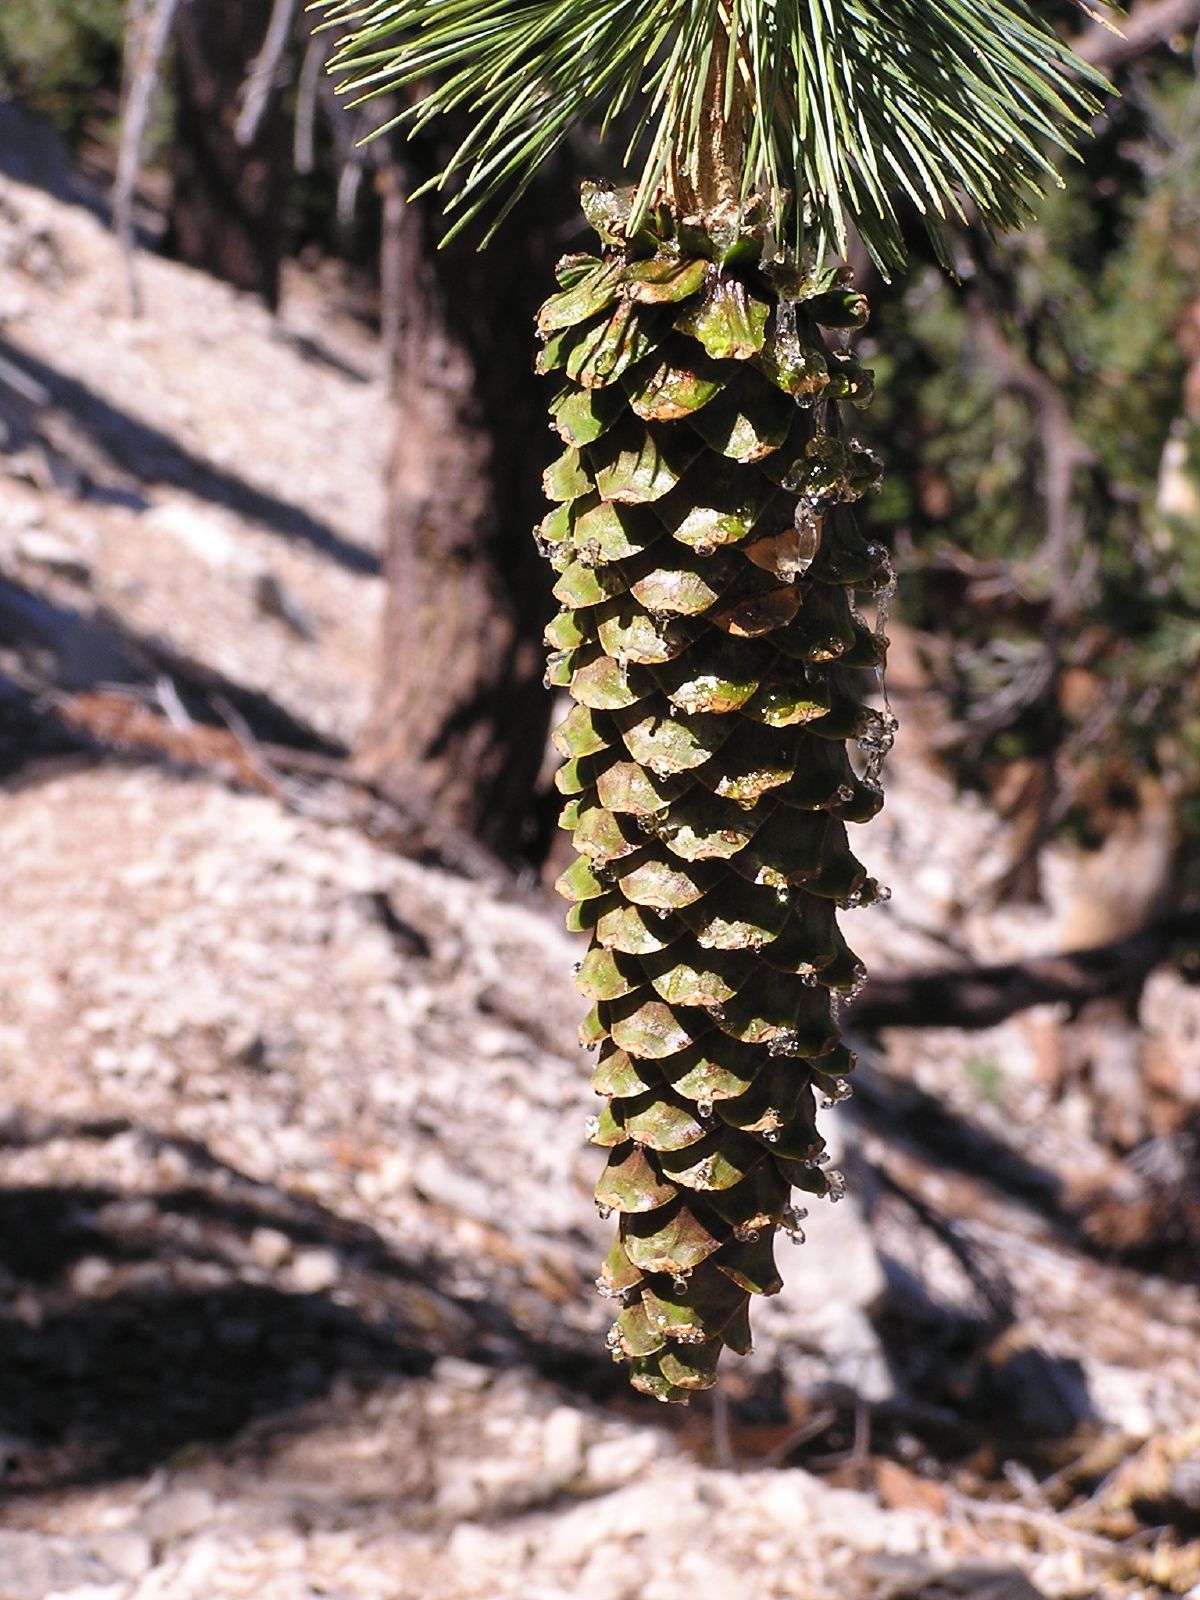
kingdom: Plantae
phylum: Tracheophyta
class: Pinopsida
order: Pinales
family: Pinaceae
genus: Pinus
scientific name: Pinus lambertiana
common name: Sugar pine
